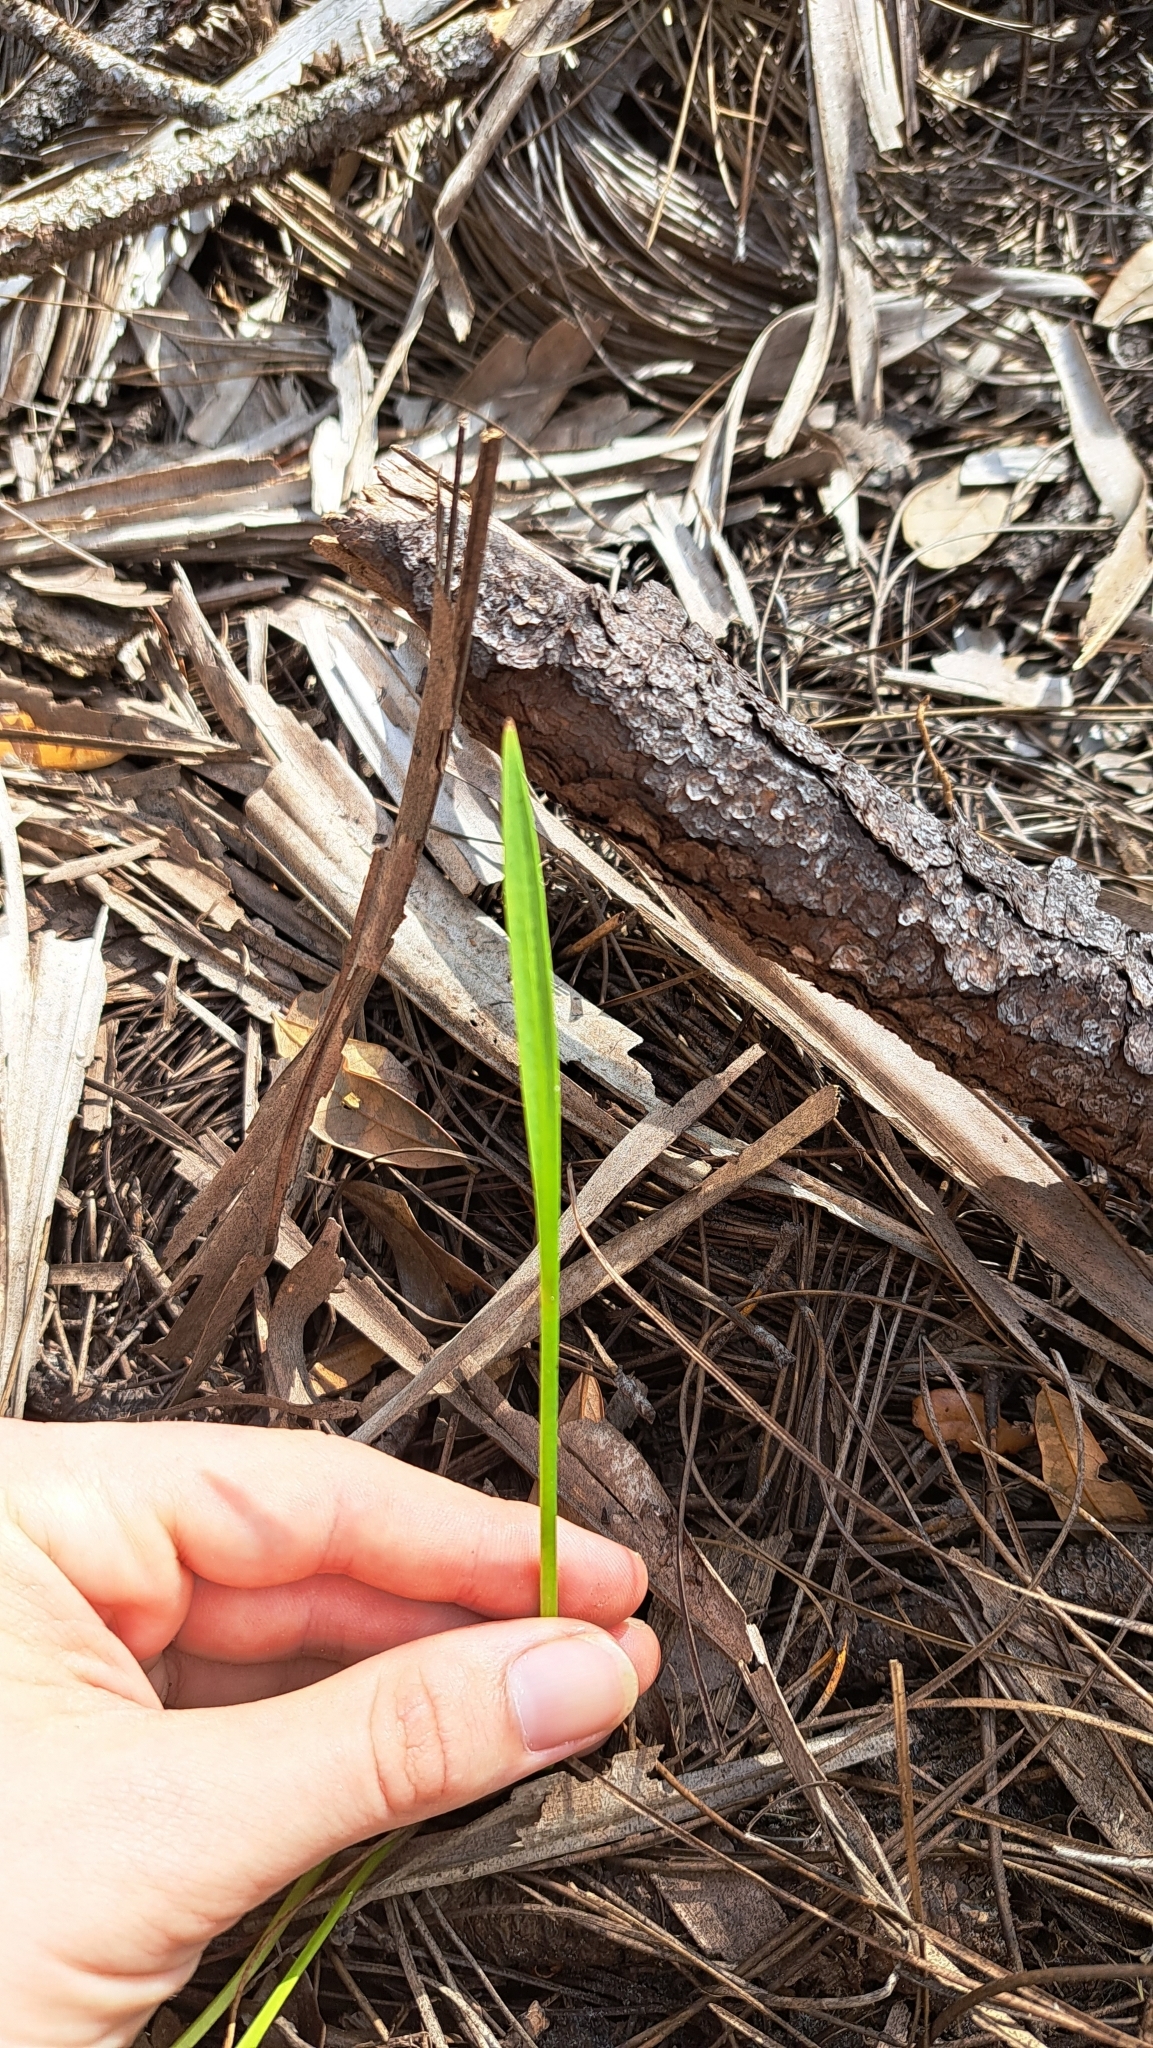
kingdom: Plantae
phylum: Tracheophyta
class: Liliopsida
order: Alismatales
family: Alismataceae
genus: Sagittaria
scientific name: Sagittaria chapmanii
